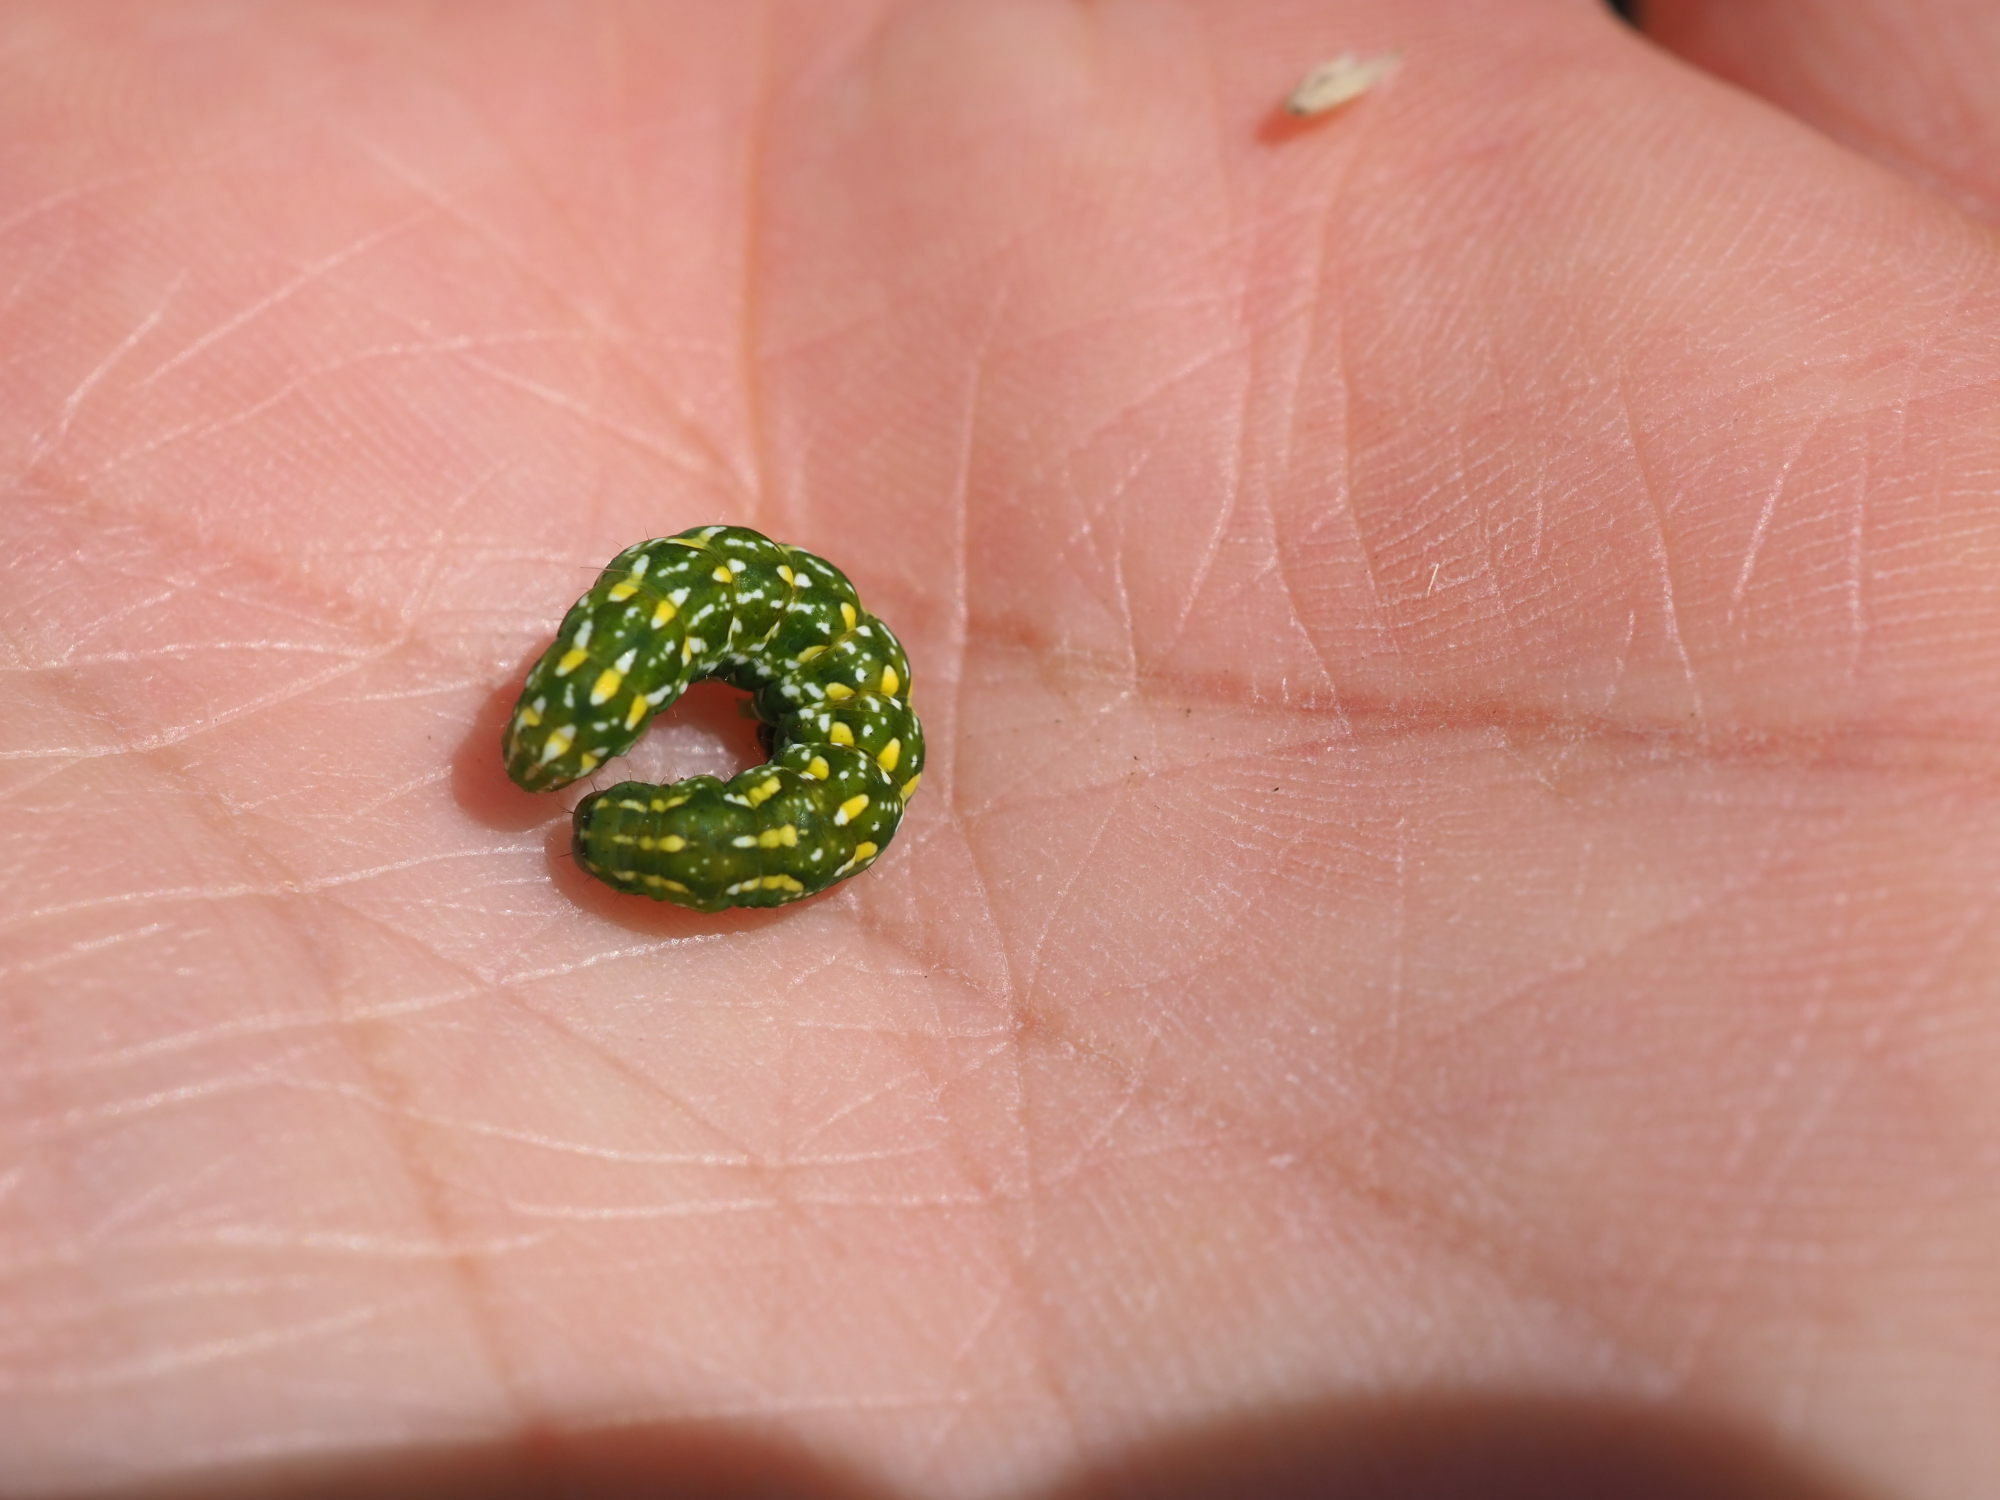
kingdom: Animalia
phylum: Arthropoda
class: Insecta
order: Lepidoptera
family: Noctuidae
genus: Anarta
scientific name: Anarta myrtilli
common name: Beautiful yellow underwing
